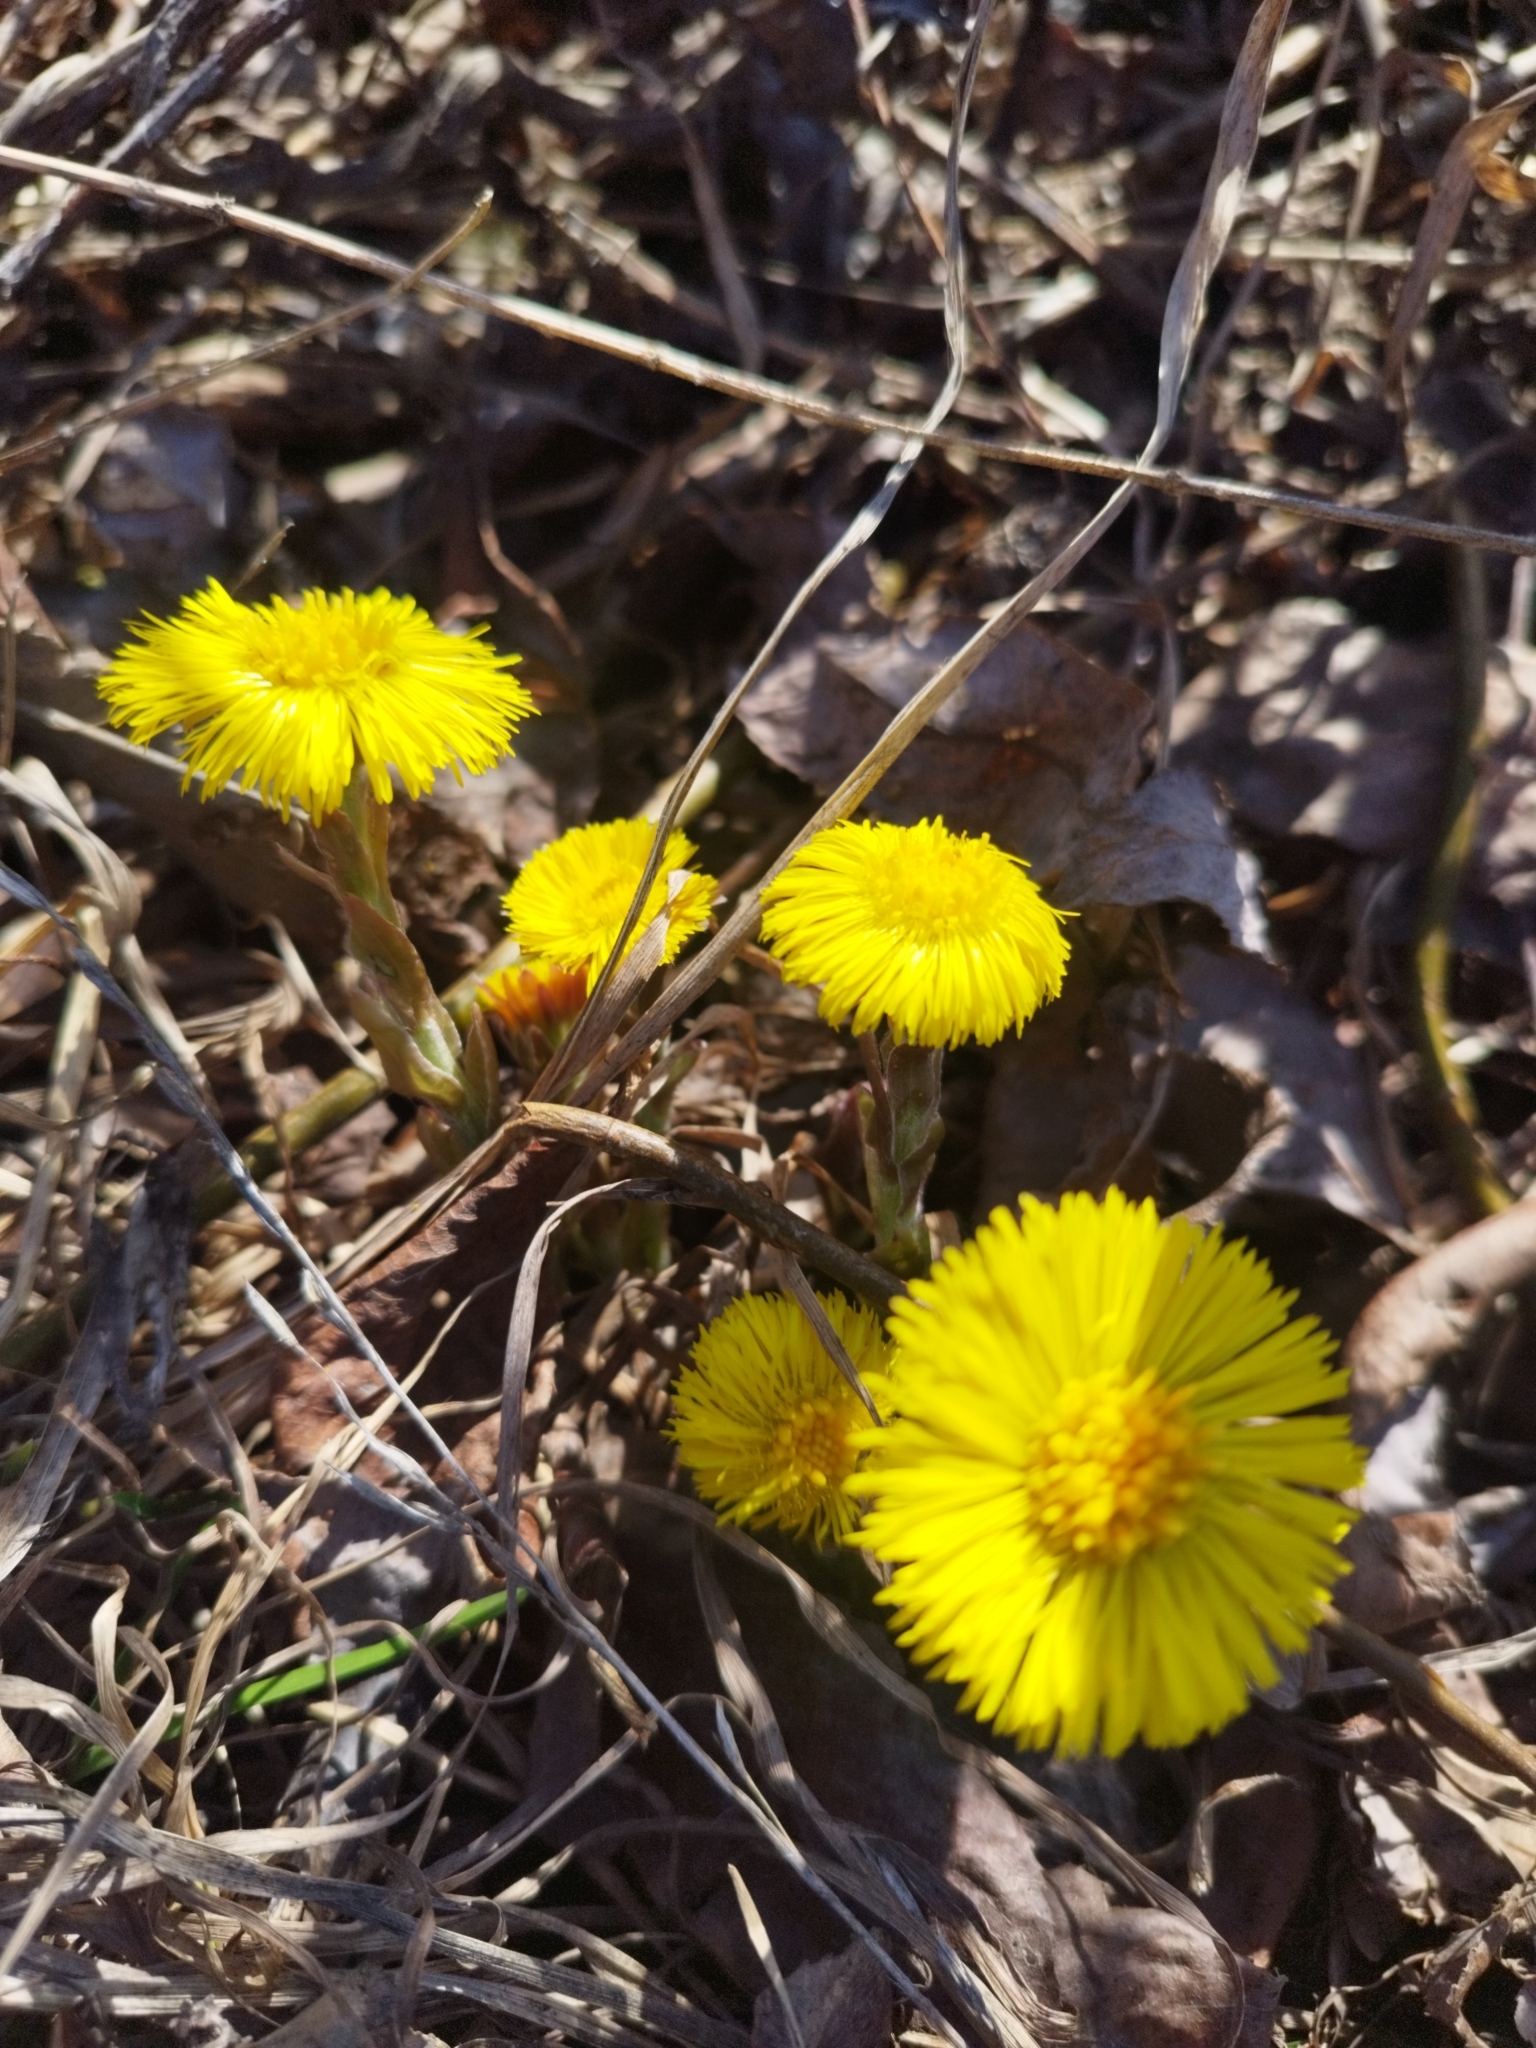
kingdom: Plantae
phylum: Tracheophyta
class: Magnoliopsida
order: Asterales
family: Asteraceae
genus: Tussilago
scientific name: Tussilago farfara
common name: Coltsfoot
